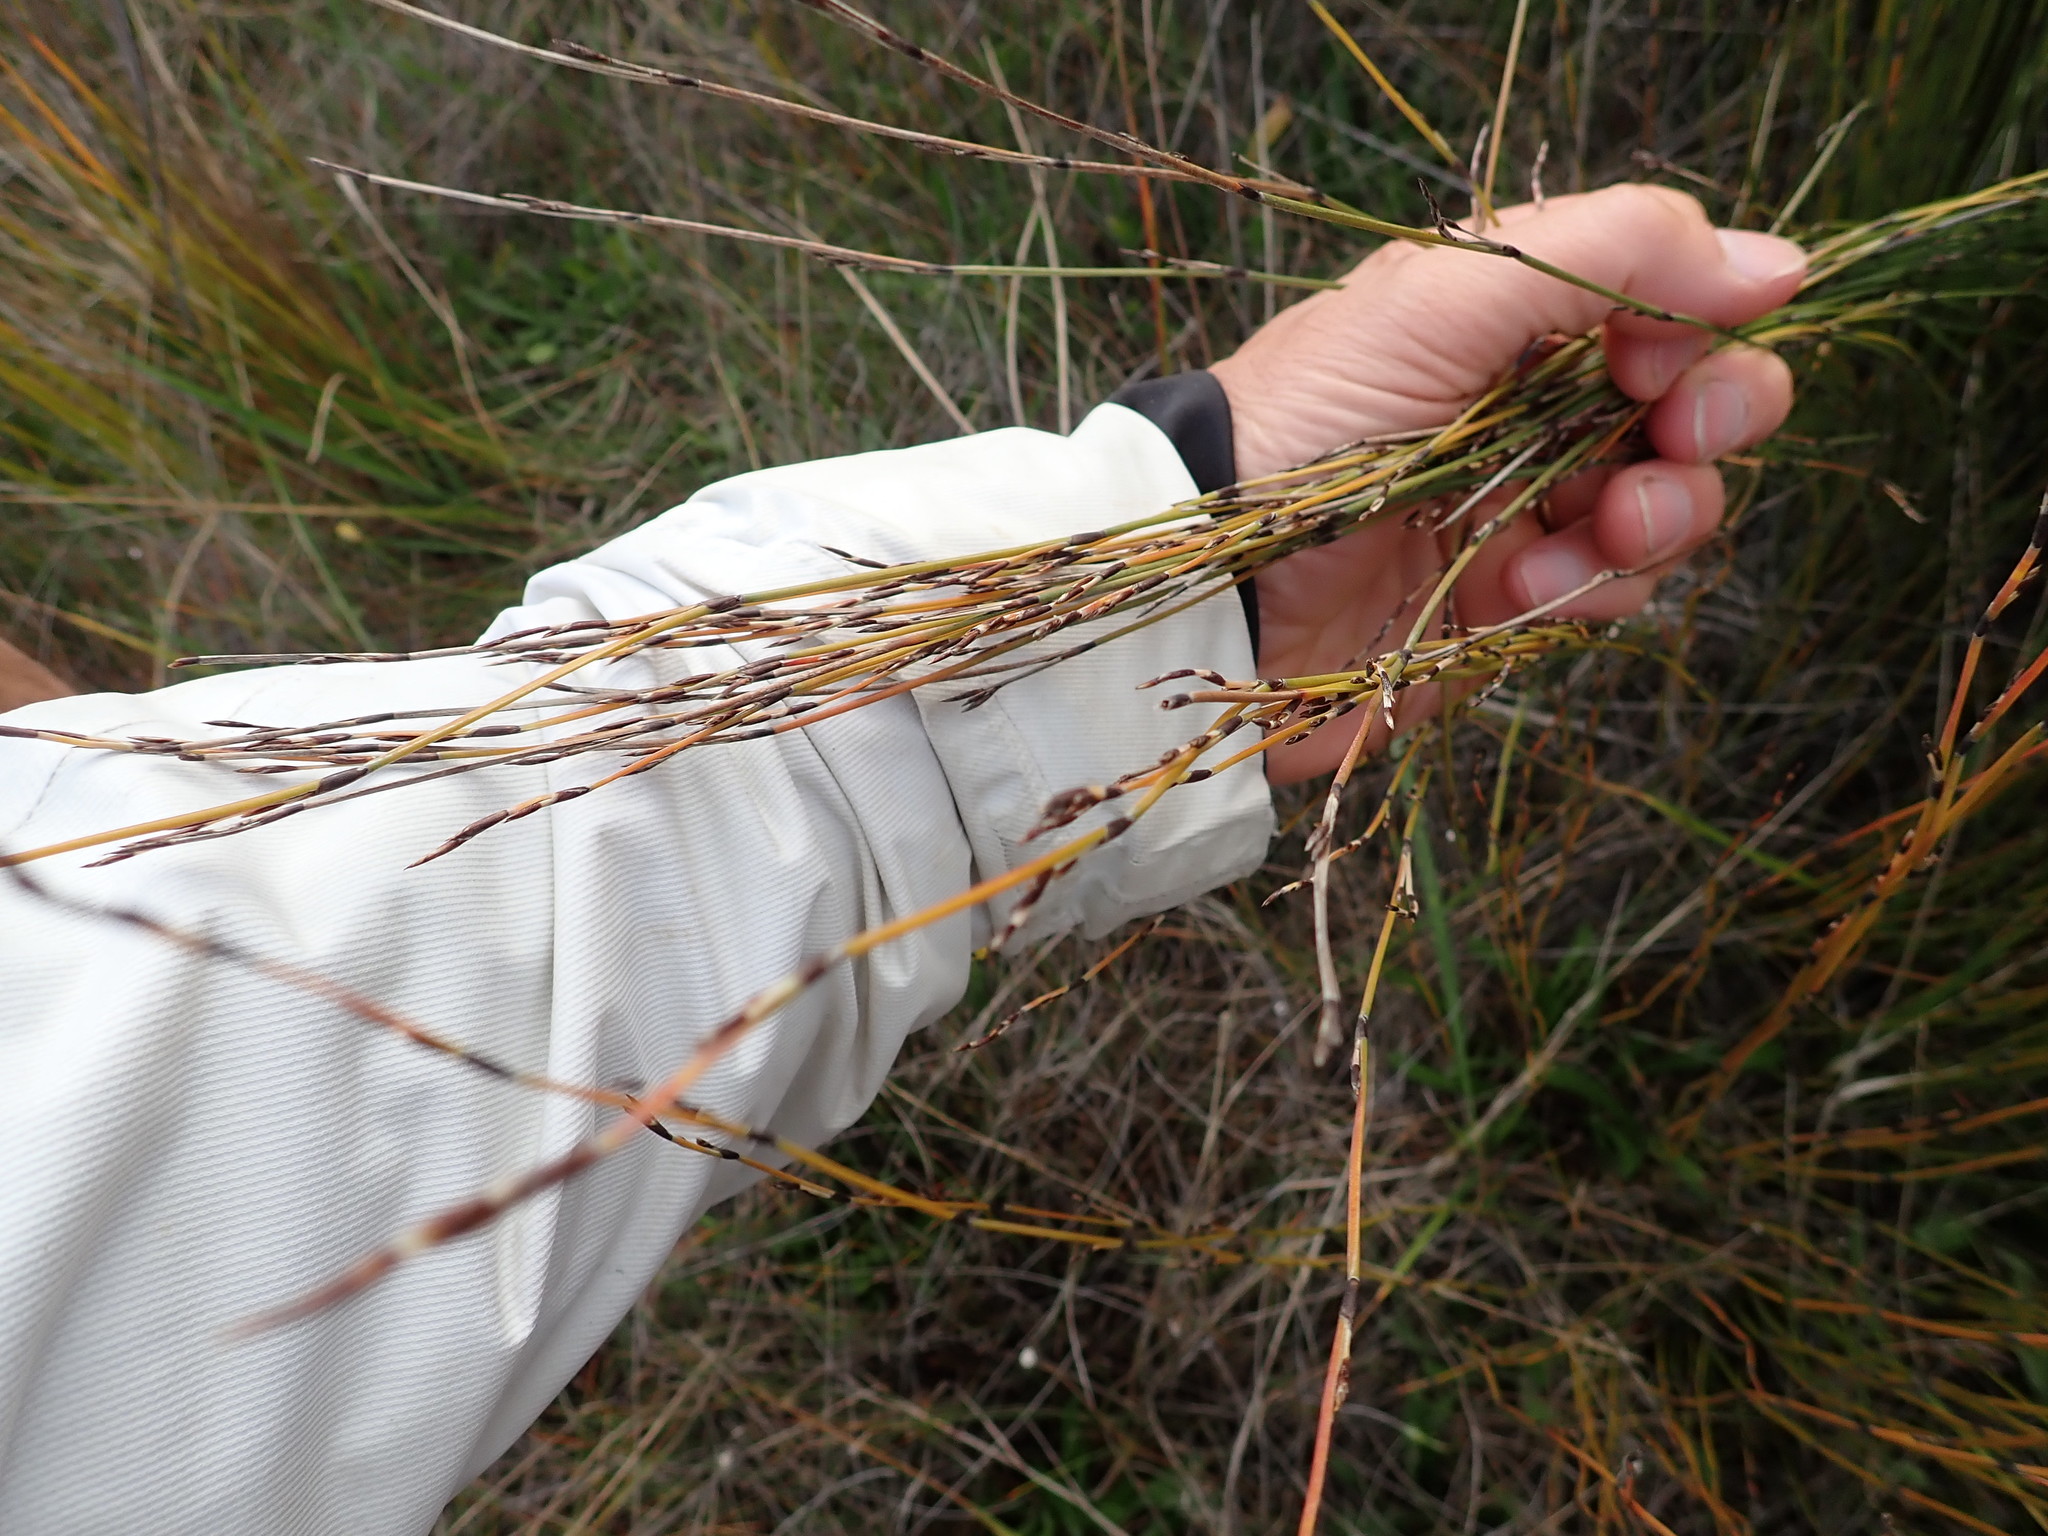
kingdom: Plantae
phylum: Tracheophyta
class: Liliopsida
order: Poales
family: Restionaceae
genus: Apodasmia
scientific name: Apodasmia similis
